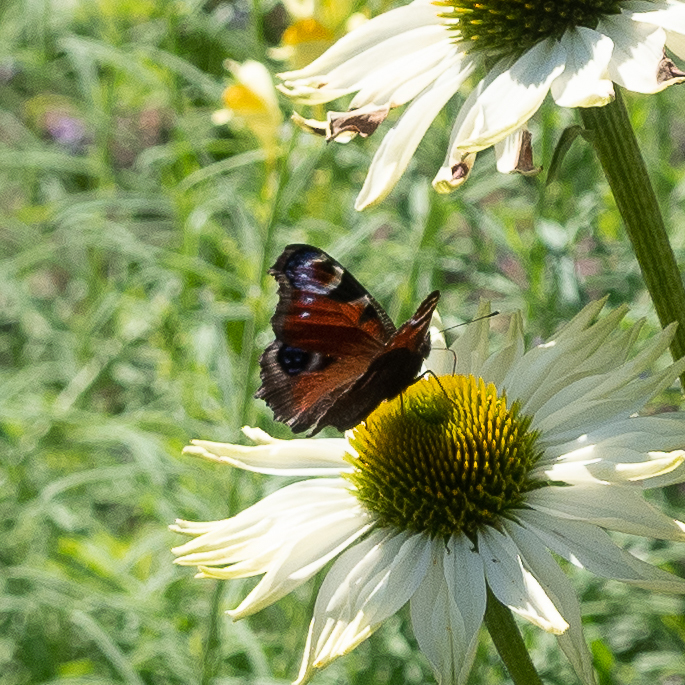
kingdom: Animalia
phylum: Arthropoda
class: Insecta
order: Lepidoptera
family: Nymphalidae
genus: Aglais
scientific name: Aglais io
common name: Peacock
